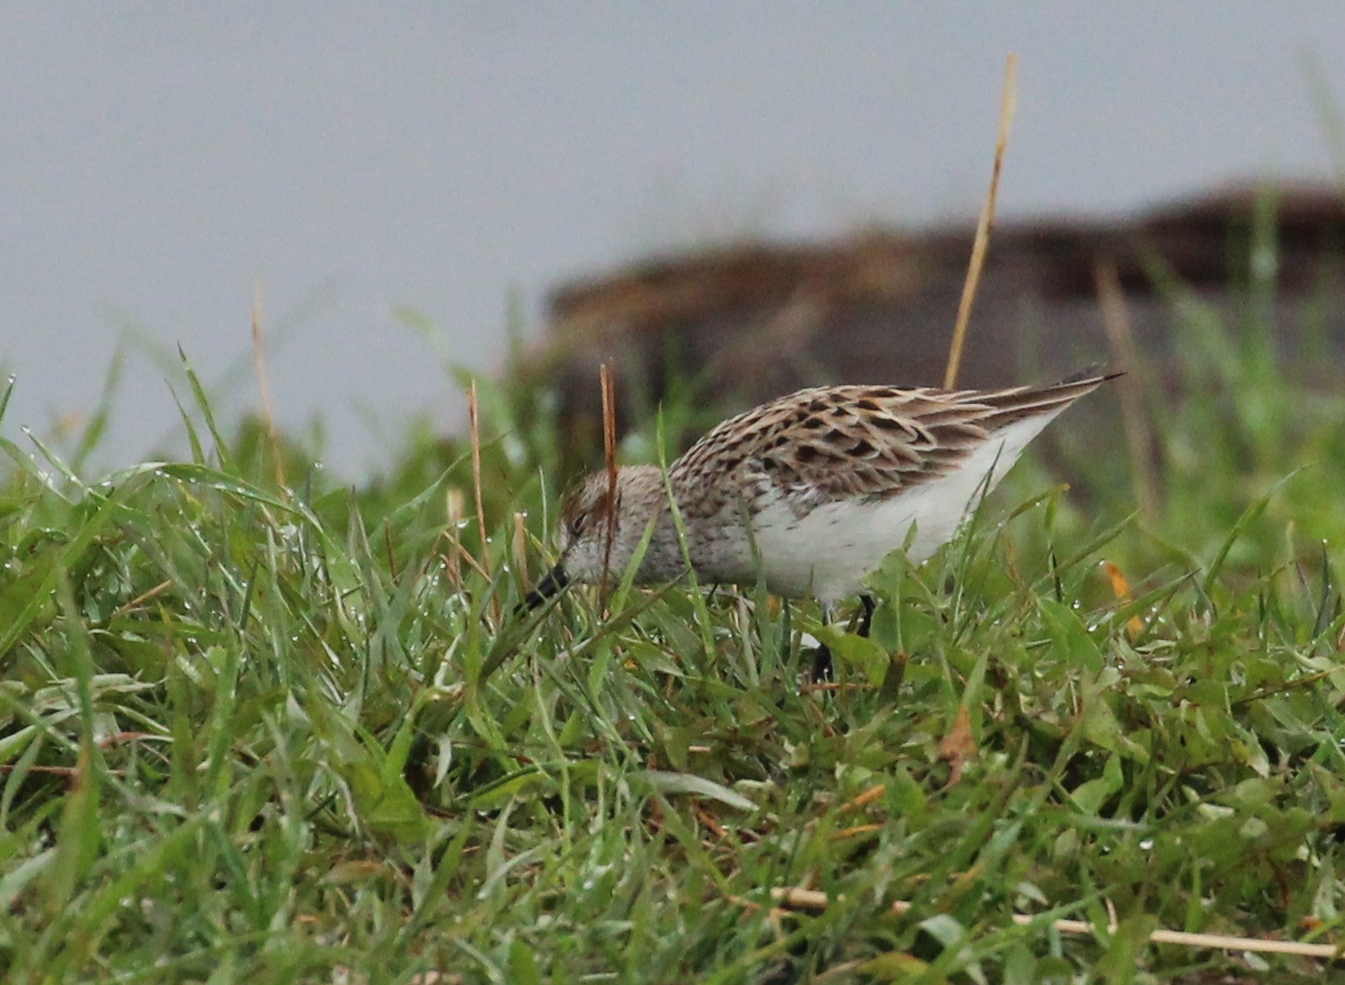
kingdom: Animalia
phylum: Chordata
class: Aves
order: Charadriiformes
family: Scolopacidae
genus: Calidris
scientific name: Calidris pusilla
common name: Semipalmated sandpiper
